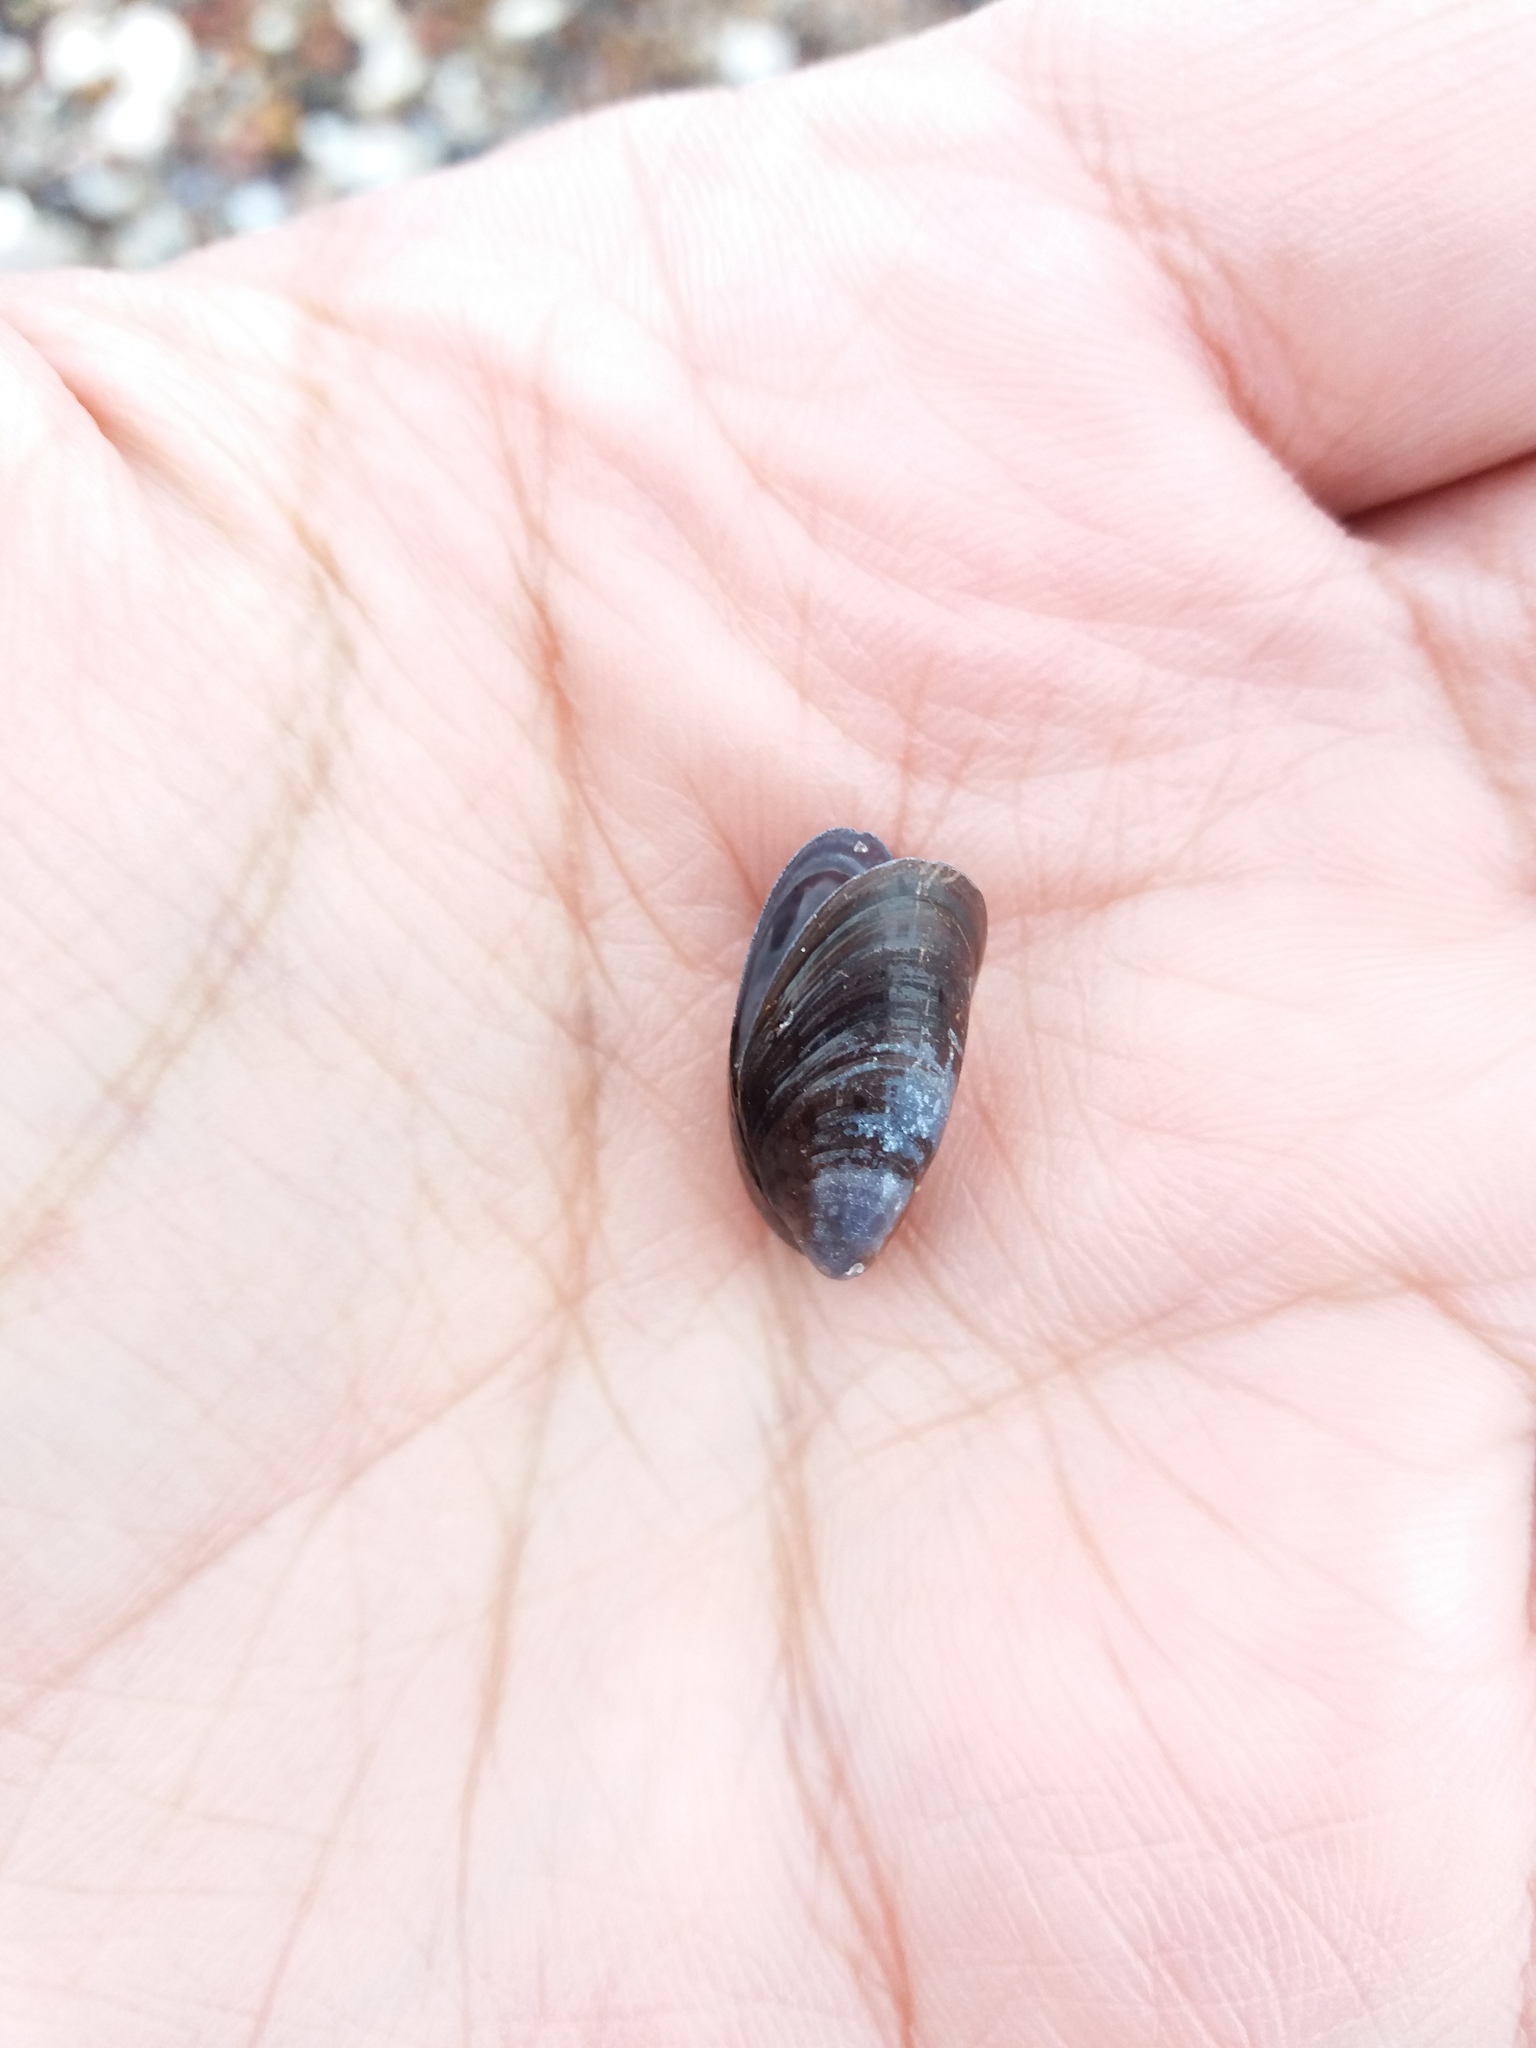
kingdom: Animalia
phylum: Mollusca
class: Bivalvia
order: Mytilida
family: Mytilidae
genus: Mytilus
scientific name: Mytilus
